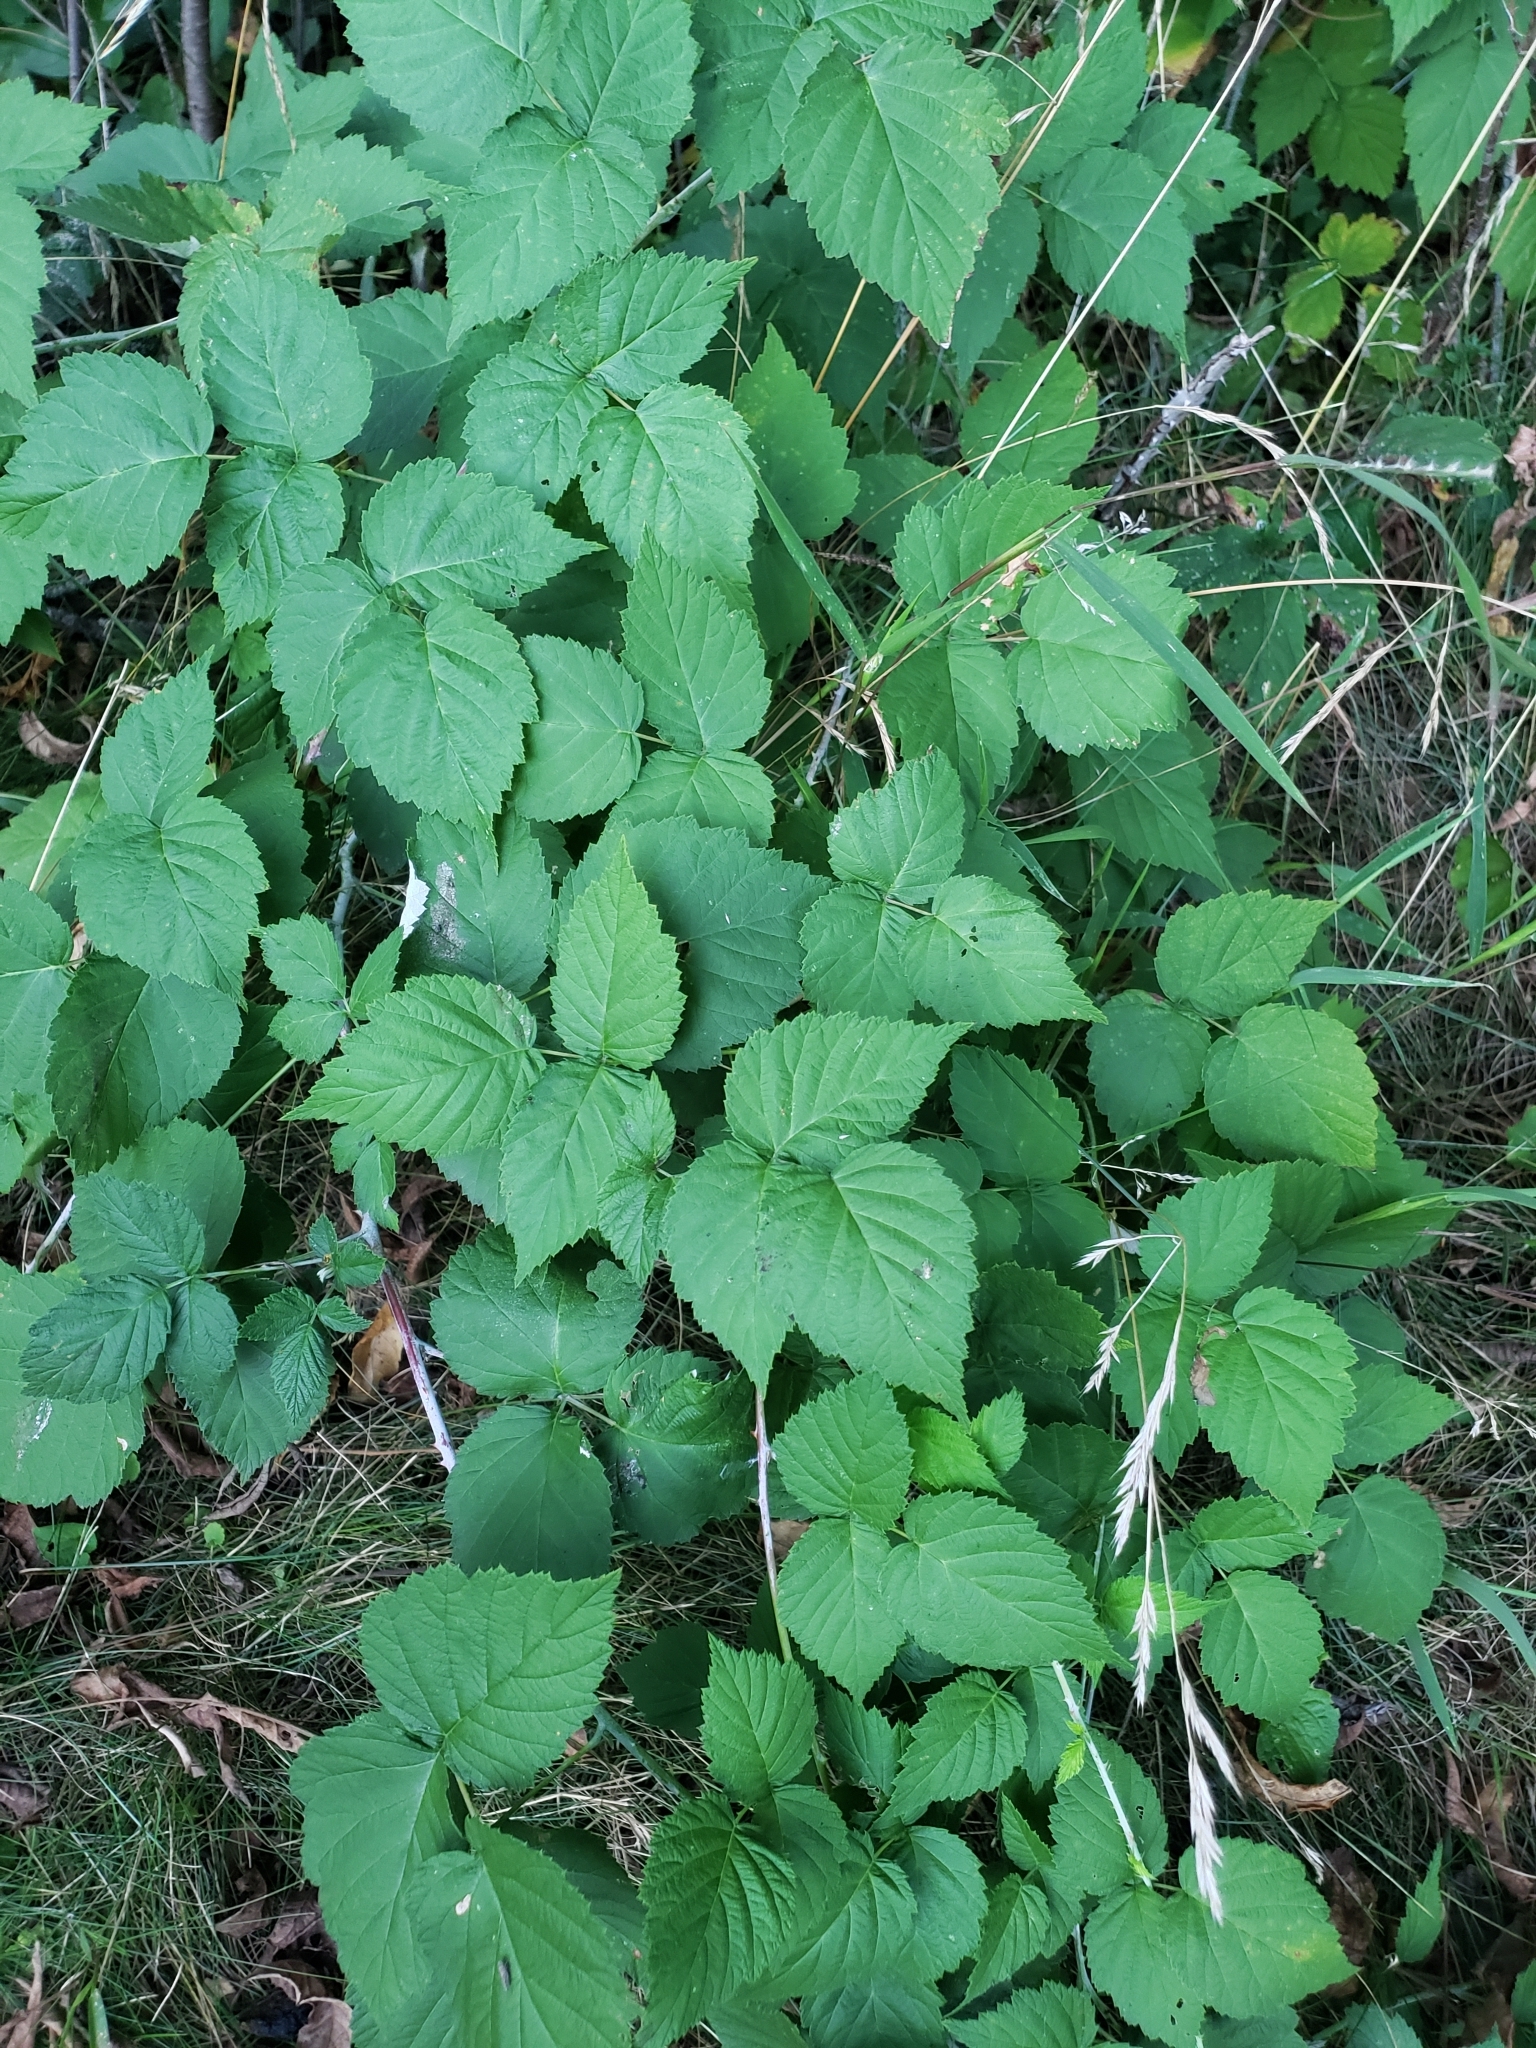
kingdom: Plantae
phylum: Tracheophyta
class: Magnoliopsida
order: Rosales
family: Rosaceae
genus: Rubus
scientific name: Rubus occidentalis
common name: Black raspberry
